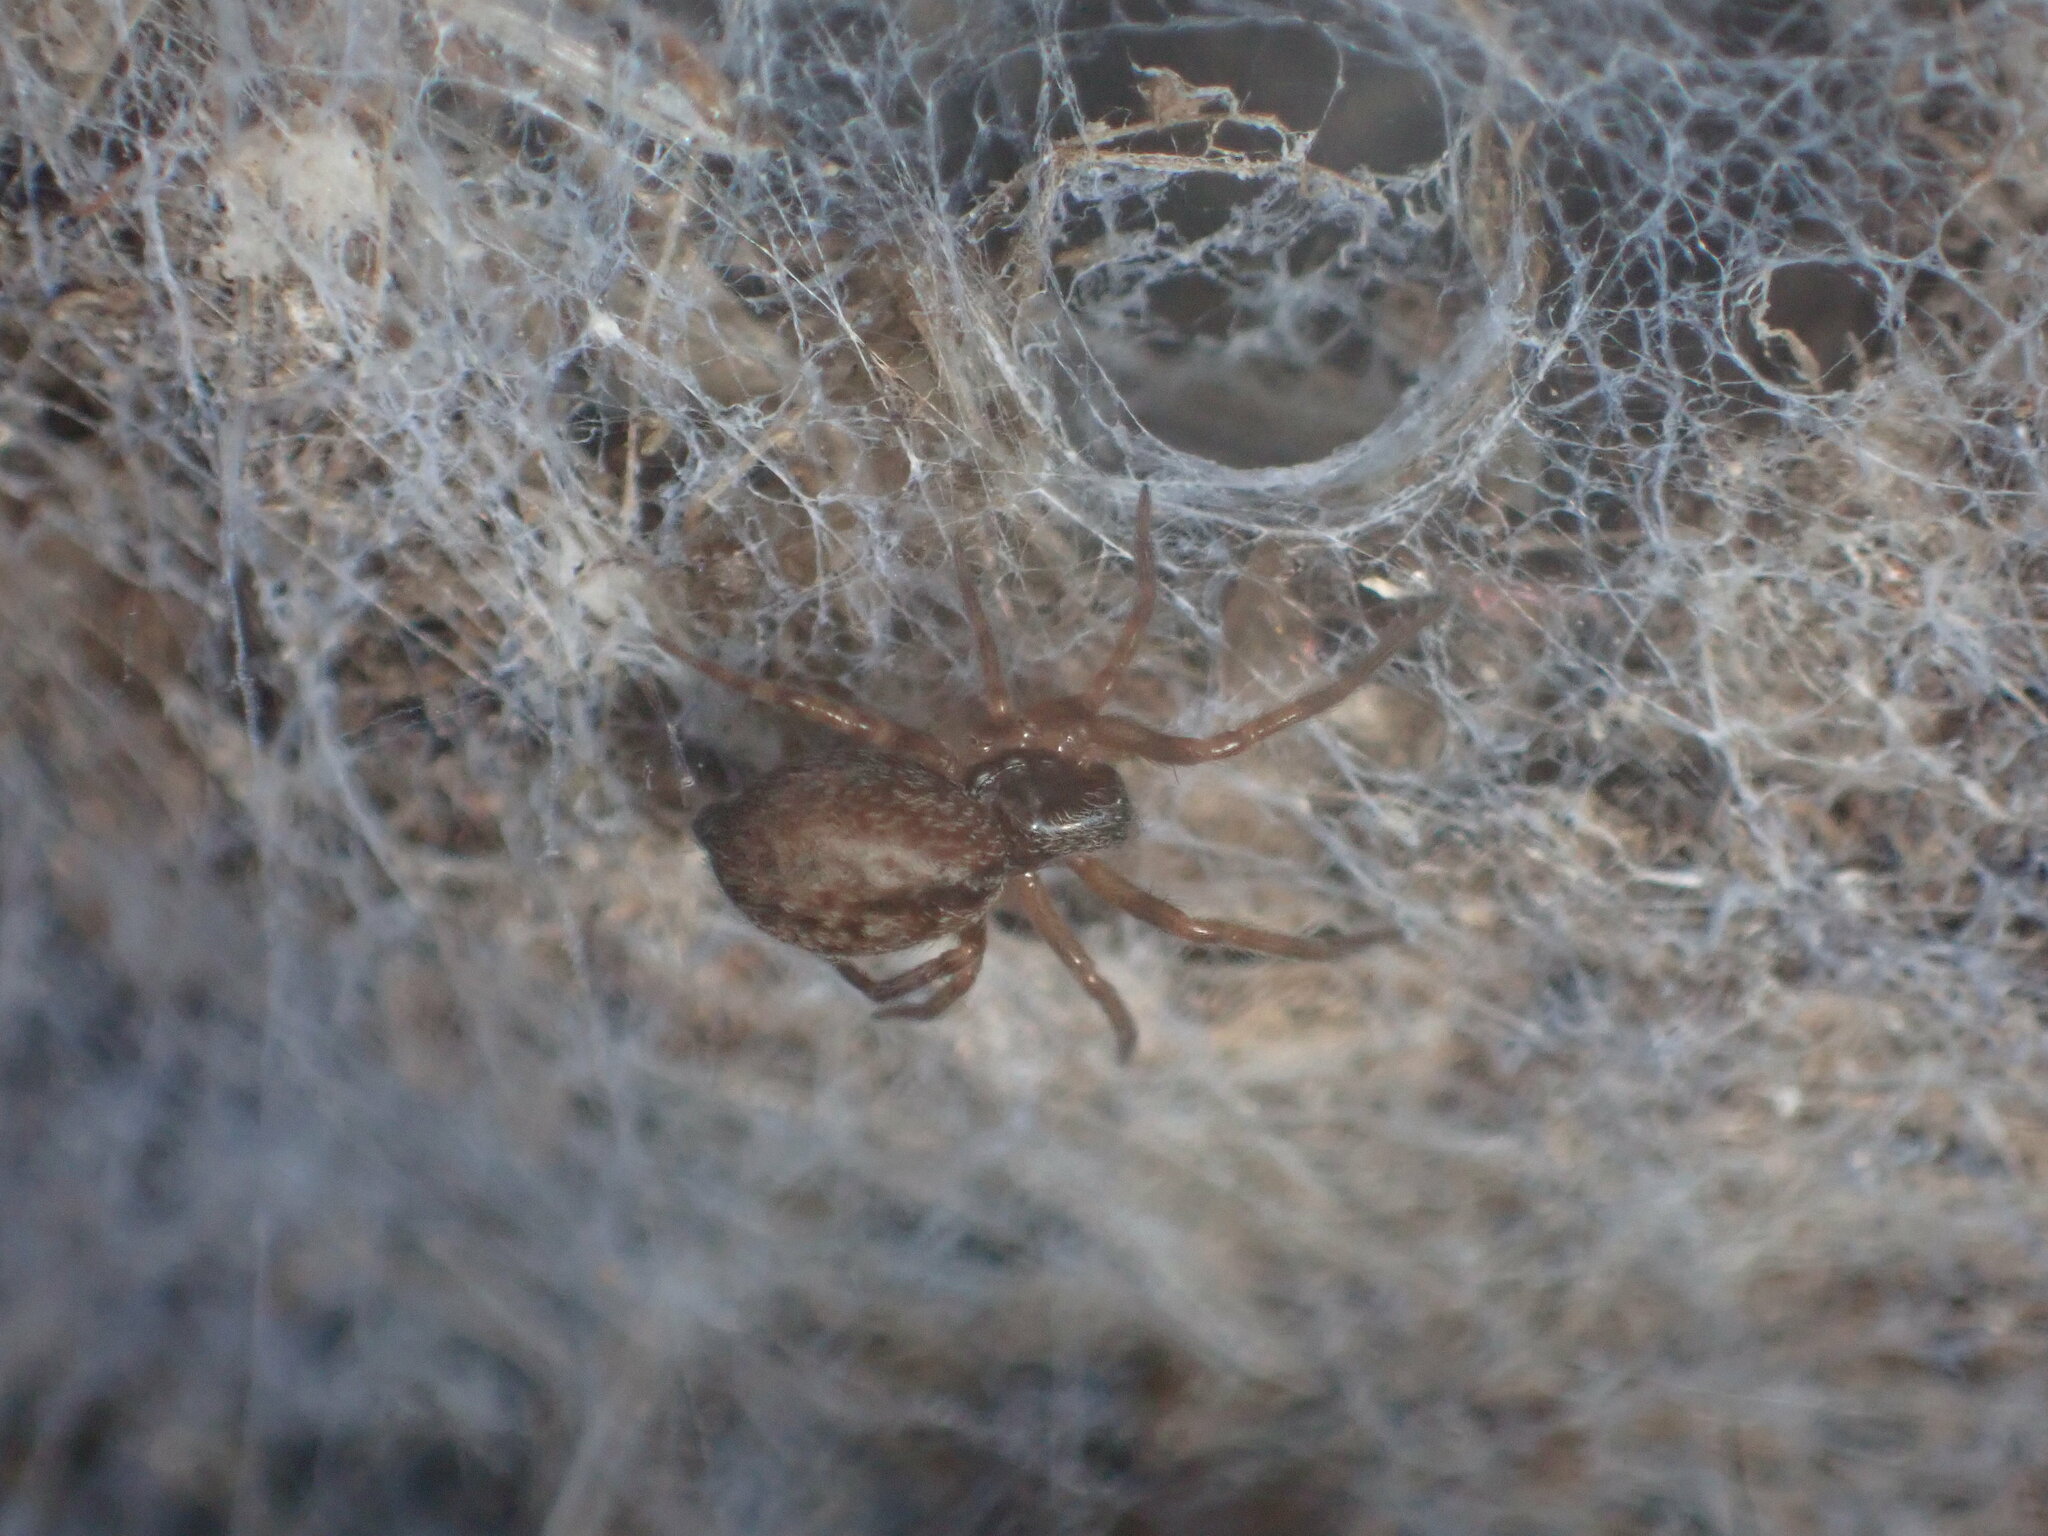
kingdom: Animalia
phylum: Arthropoda
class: Arachnida
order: Araneae
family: Desidae
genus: Badumna
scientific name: Badumna longinqua
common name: Gray house spider
